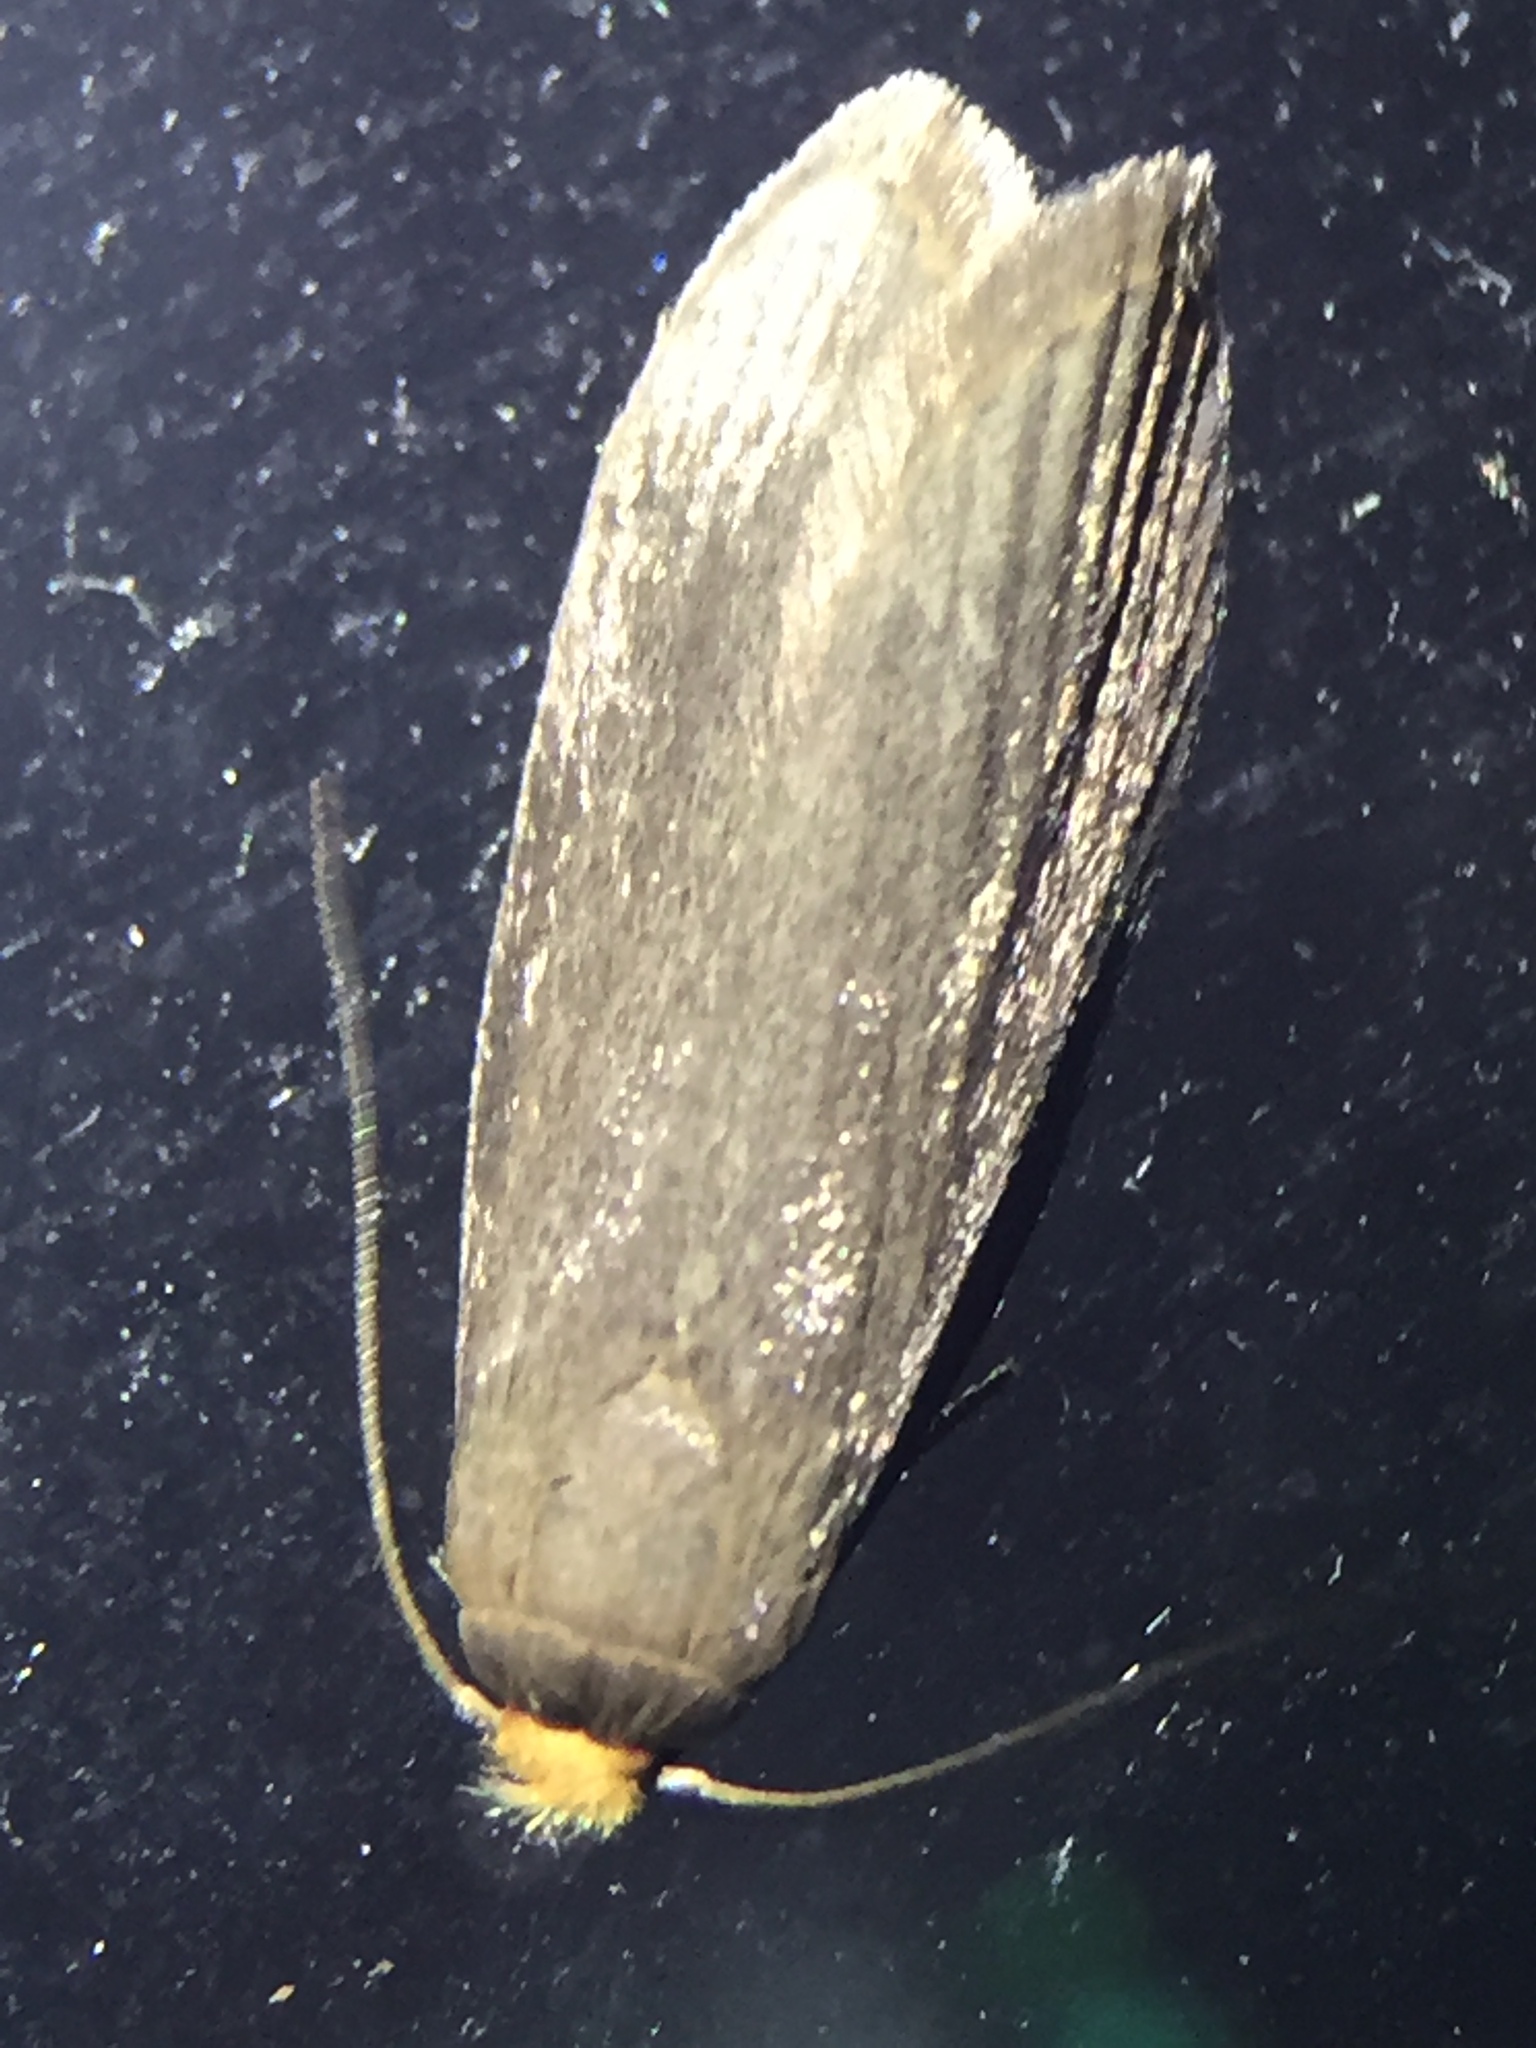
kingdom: Animalia
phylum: Arthropoda
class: Insecta
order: Lepidoptera
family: Pyralidae
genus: Achroia
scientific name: Achroia grisella
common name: Lesser wax moth
